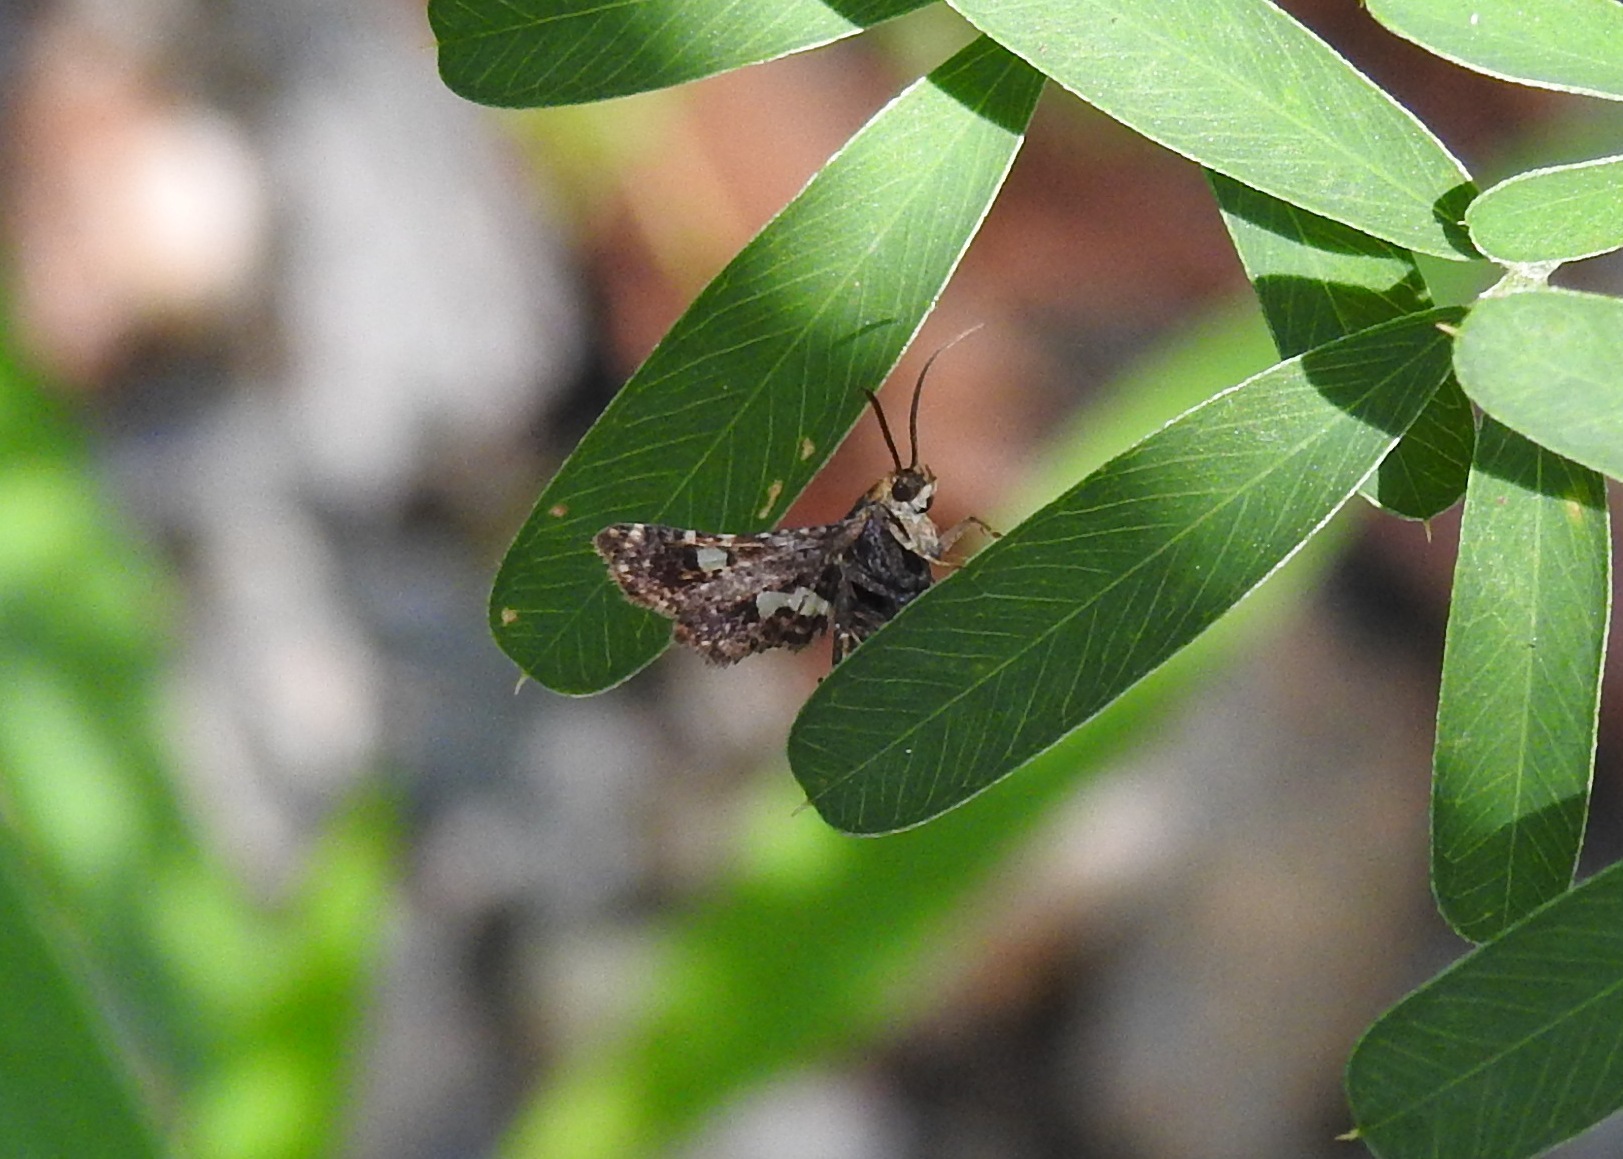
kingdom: Animalia
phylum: Arthropoda
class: Insecta
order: Lepidoptera
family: Thyrididae
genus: Thyris
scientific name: Thyris maculata
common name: Spotted thyris moth
